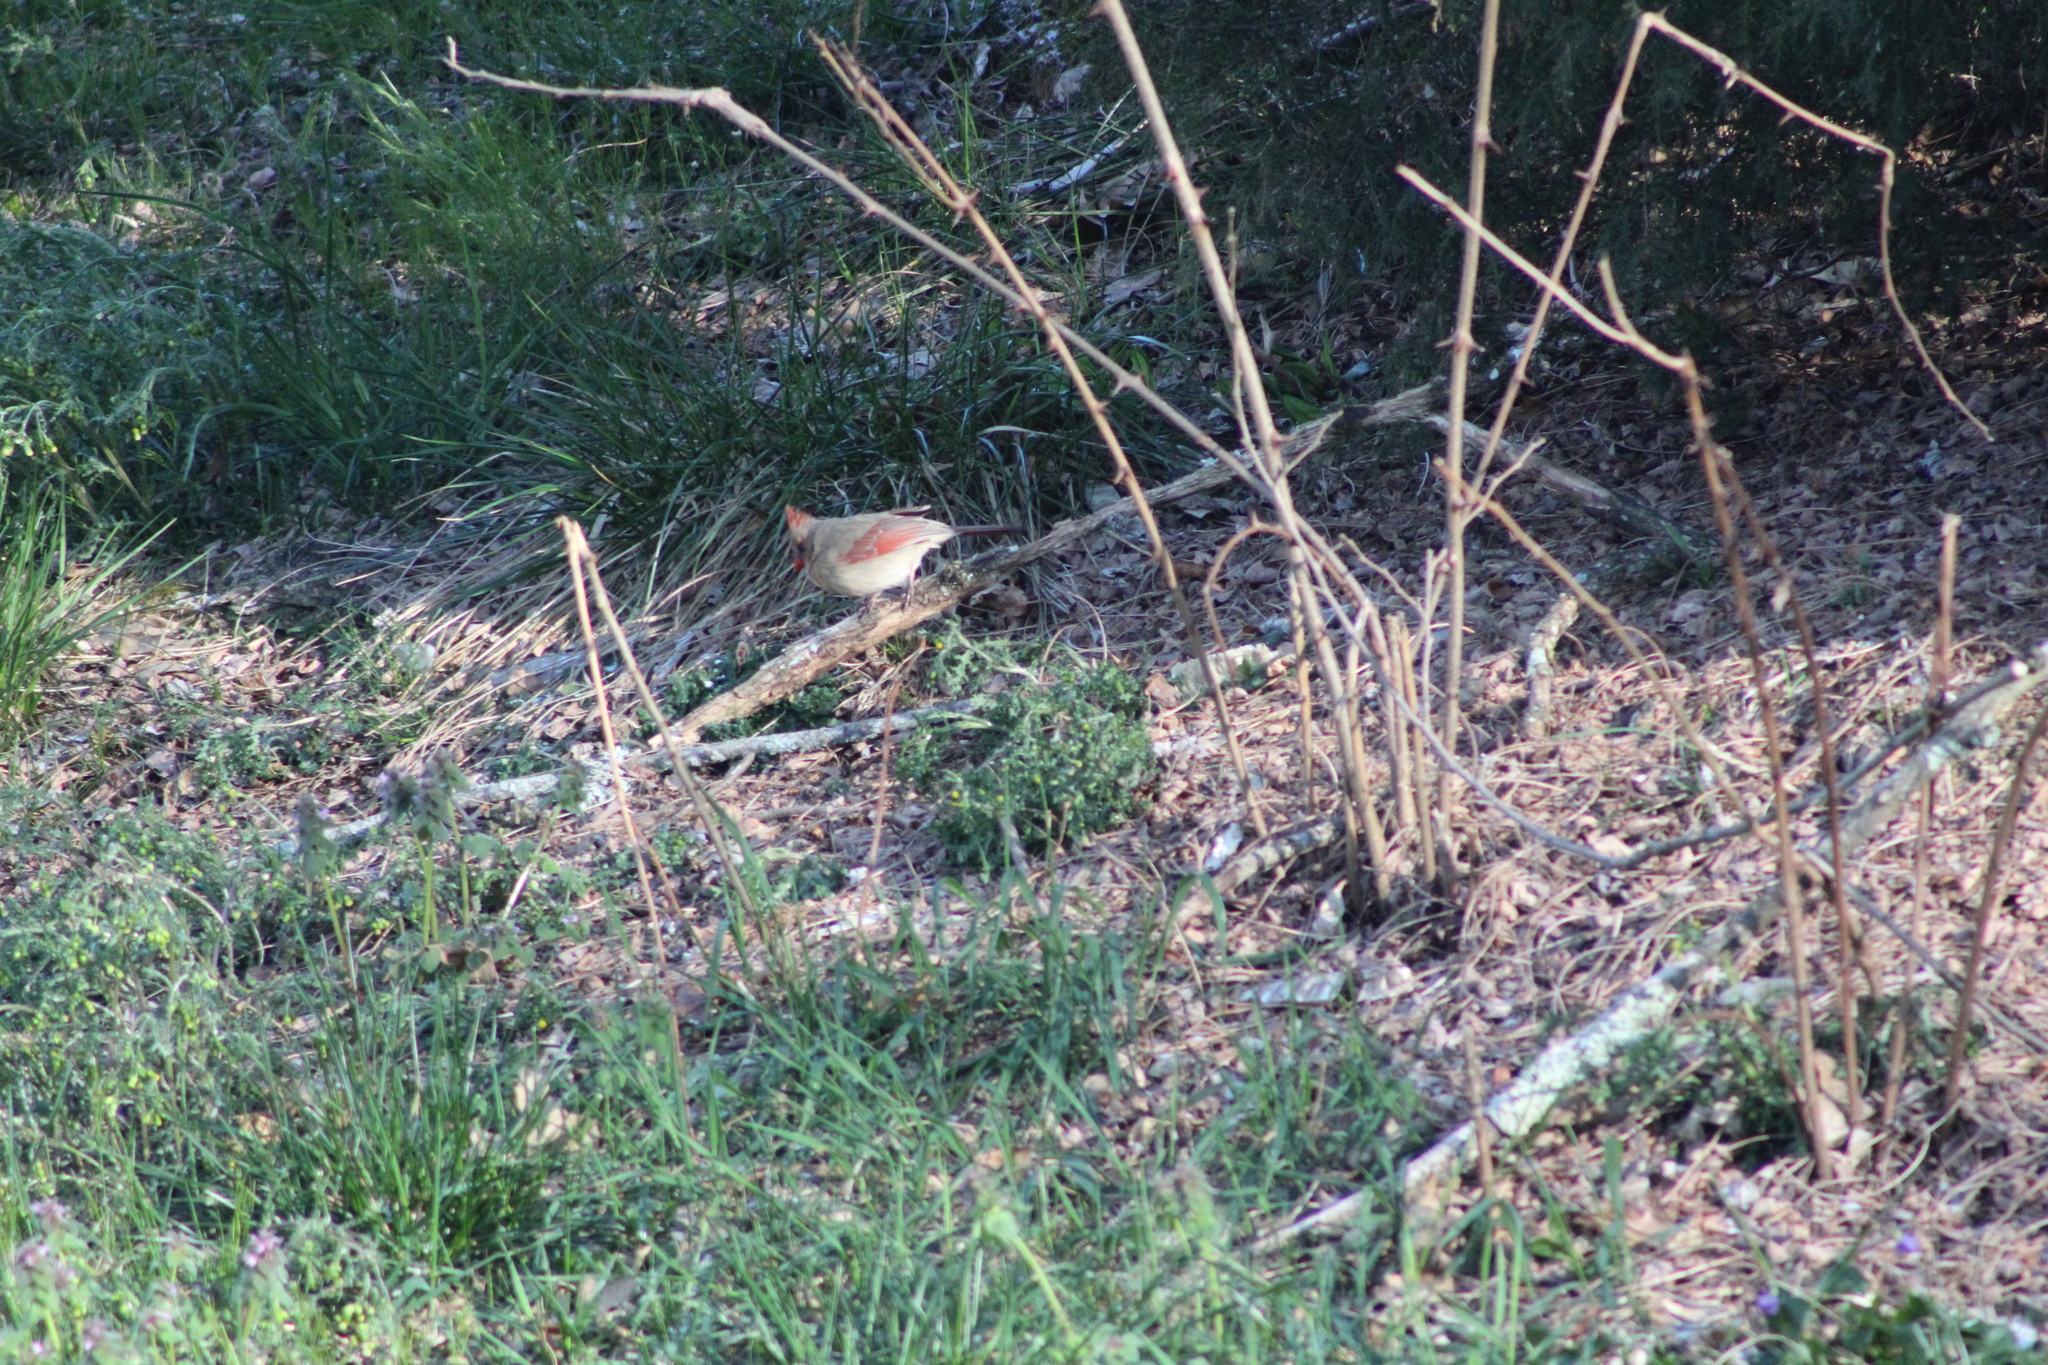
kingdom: Animalia
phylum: Chordata
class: Aves
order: Passeriformes
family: Cardinalidae
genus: Cardinalis
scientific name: Cardinalis cardinalis
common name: Northern cardinal
